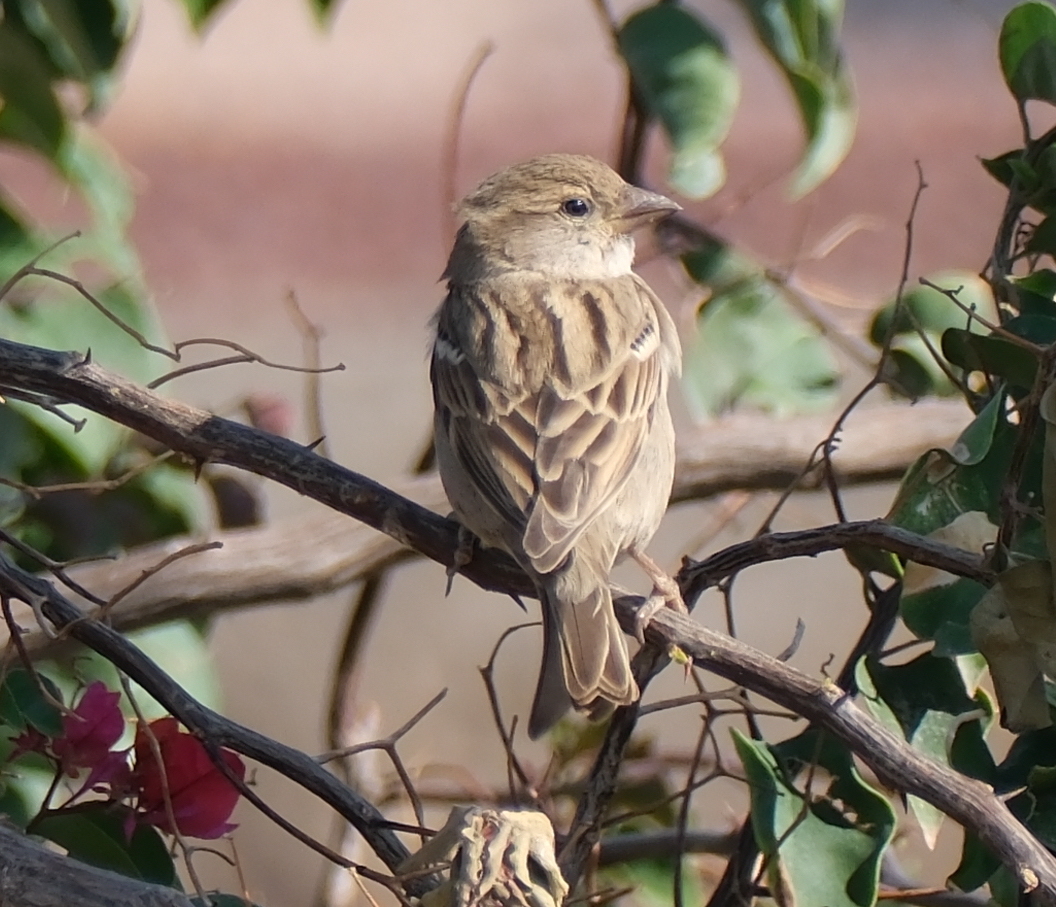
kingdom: Animalia
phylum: Chordata
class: Aves
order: Passeriformes
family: Passeridae
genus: Passer
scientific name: Passer domesticus
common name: House sparrow
